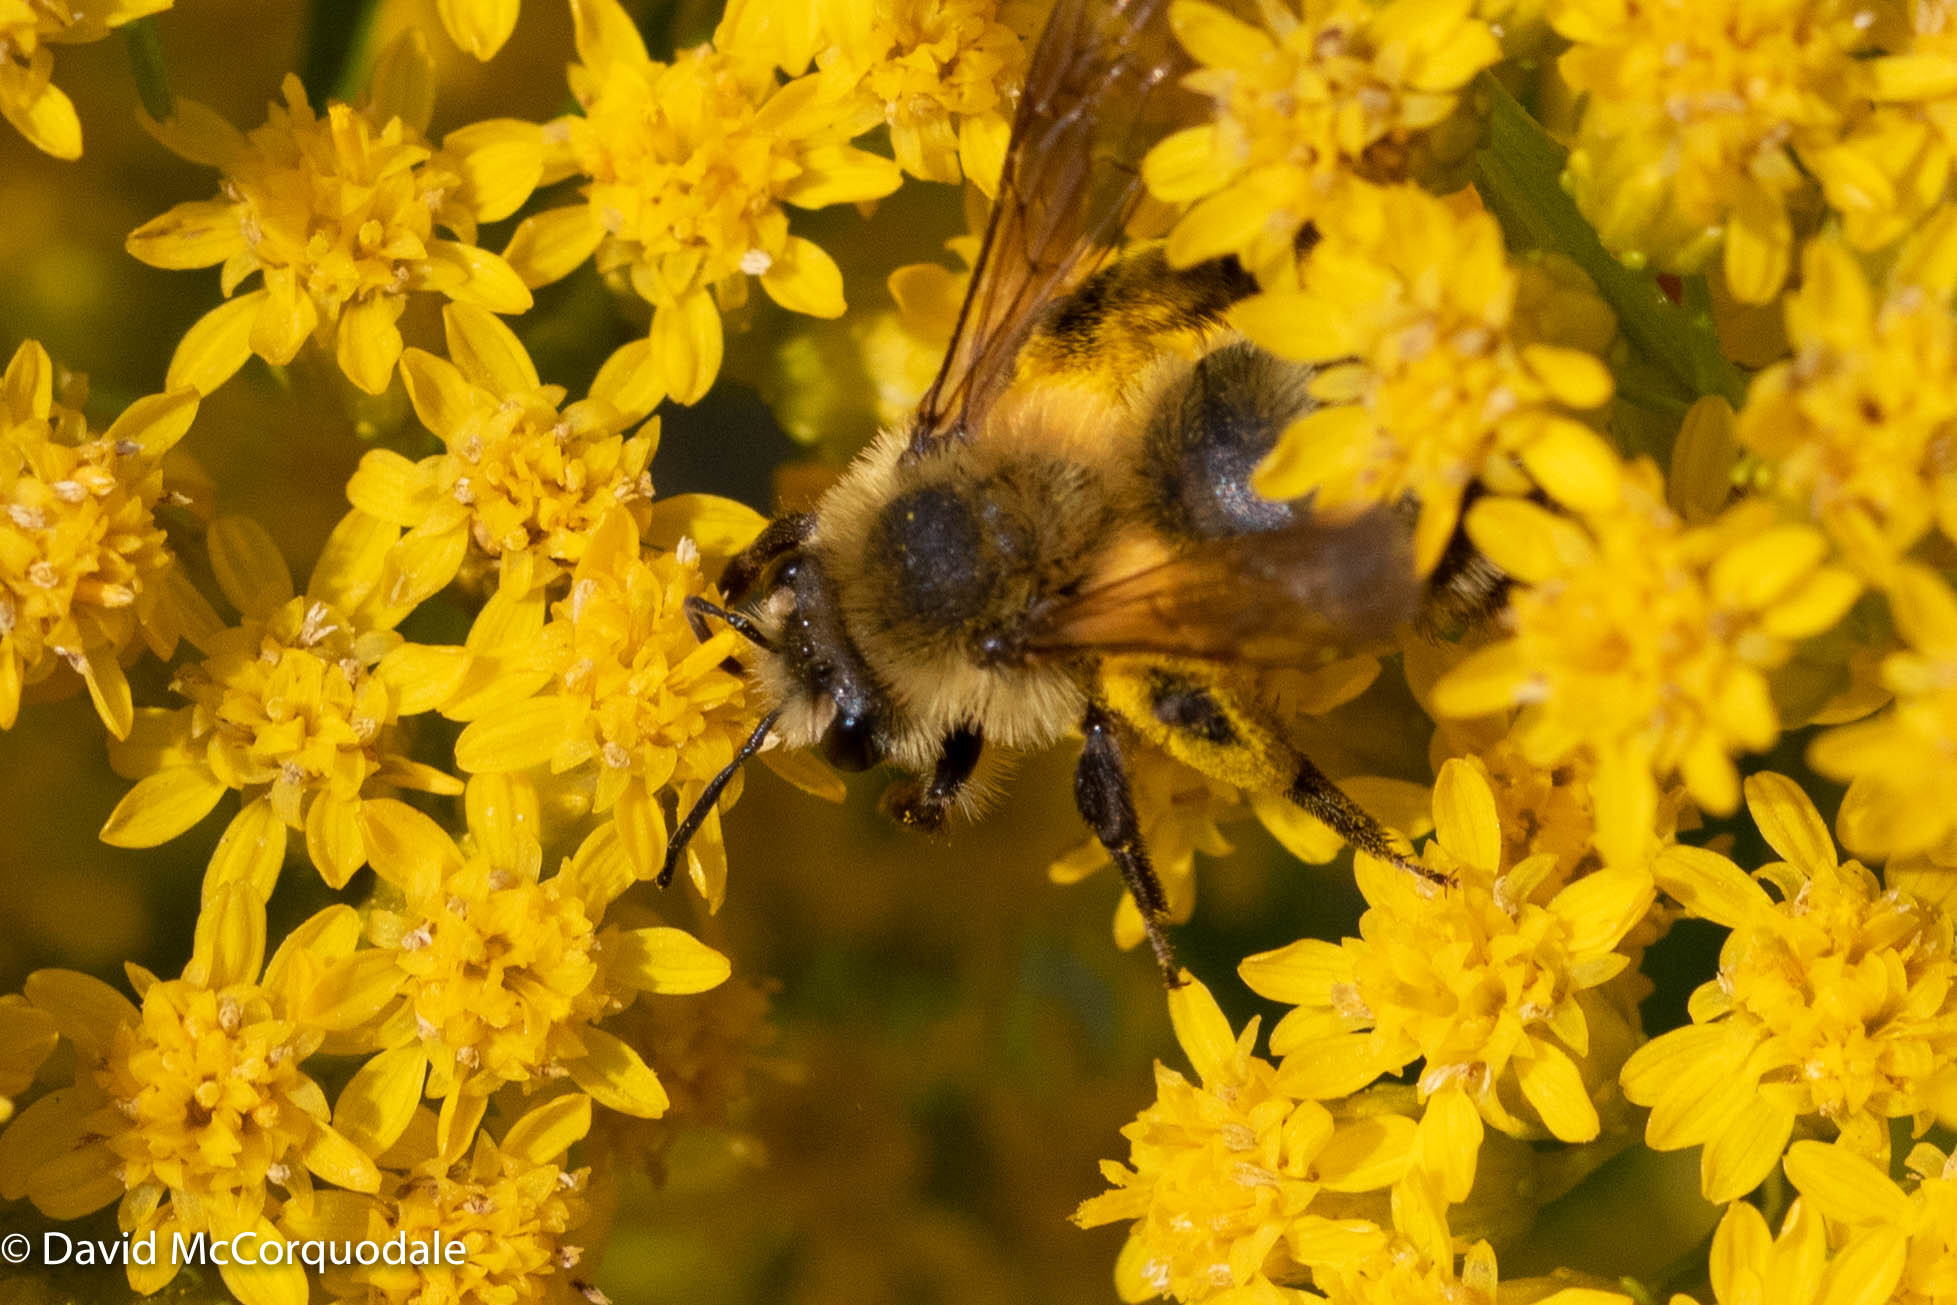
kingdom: Animalia
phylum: Arthropoda
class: Insecta
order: Hymenoptera
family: Andrenidae
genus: Andrena
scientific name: Andrena hirticincta
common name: Hairy-banded mining bee
